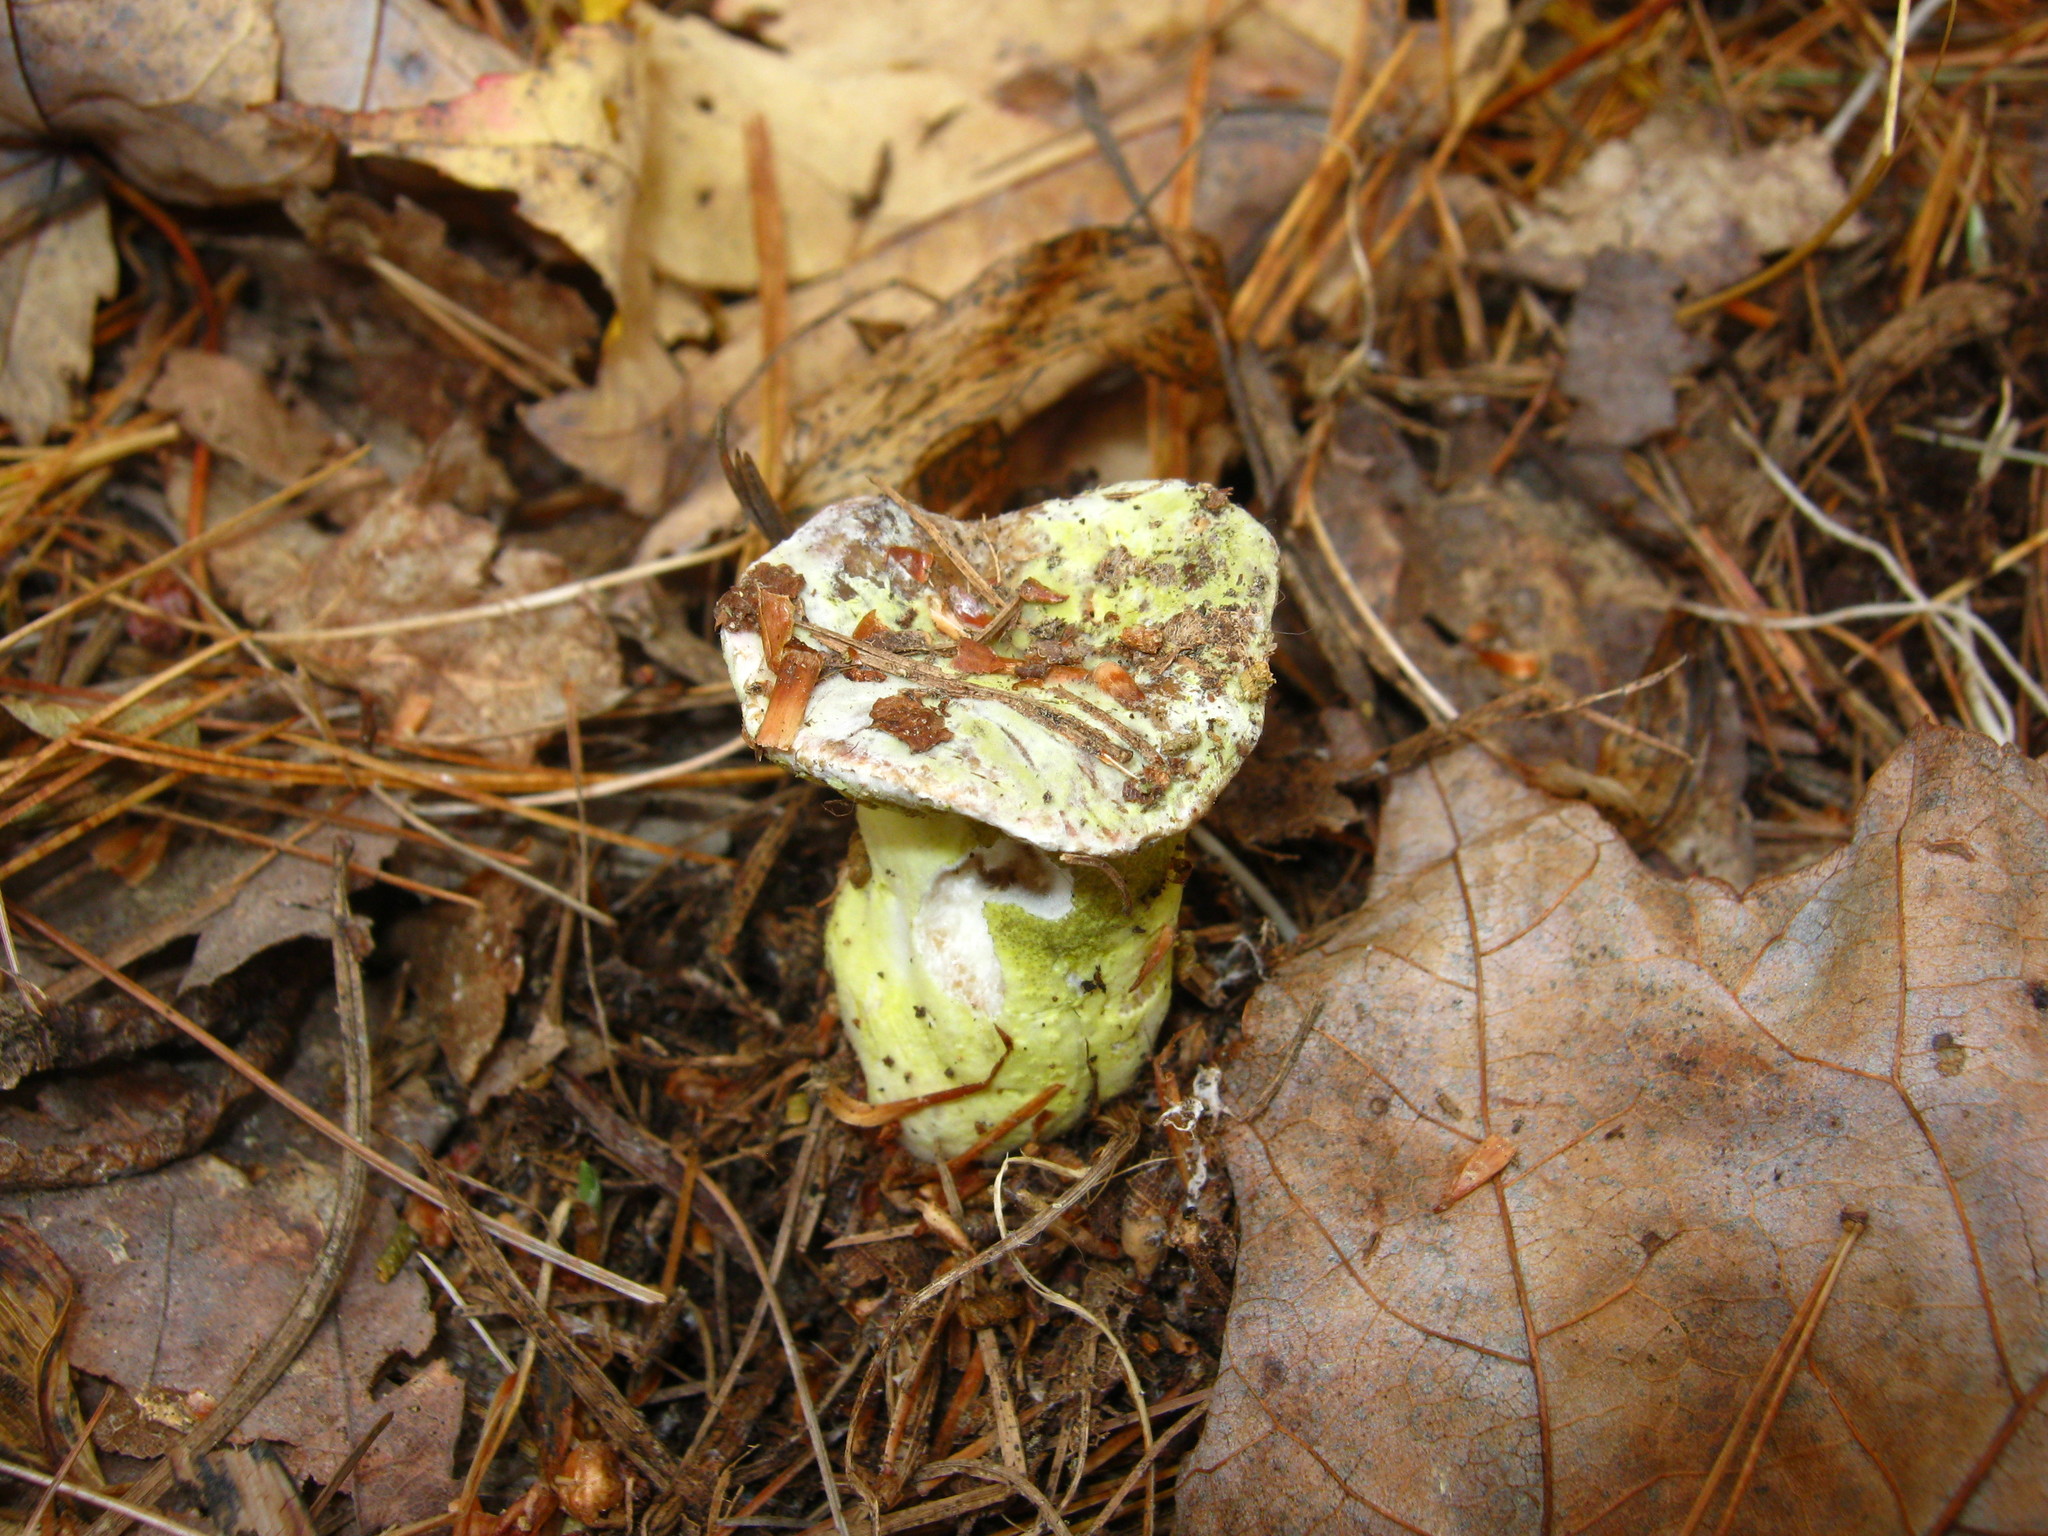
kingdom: Fungi
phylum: Ascomycota
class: Sordariomycetes
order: Hypocreales
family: Hypocreaceae
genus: Hypomyces
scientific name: Hypomyces luteovirens
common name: Yellow-green russula mold
